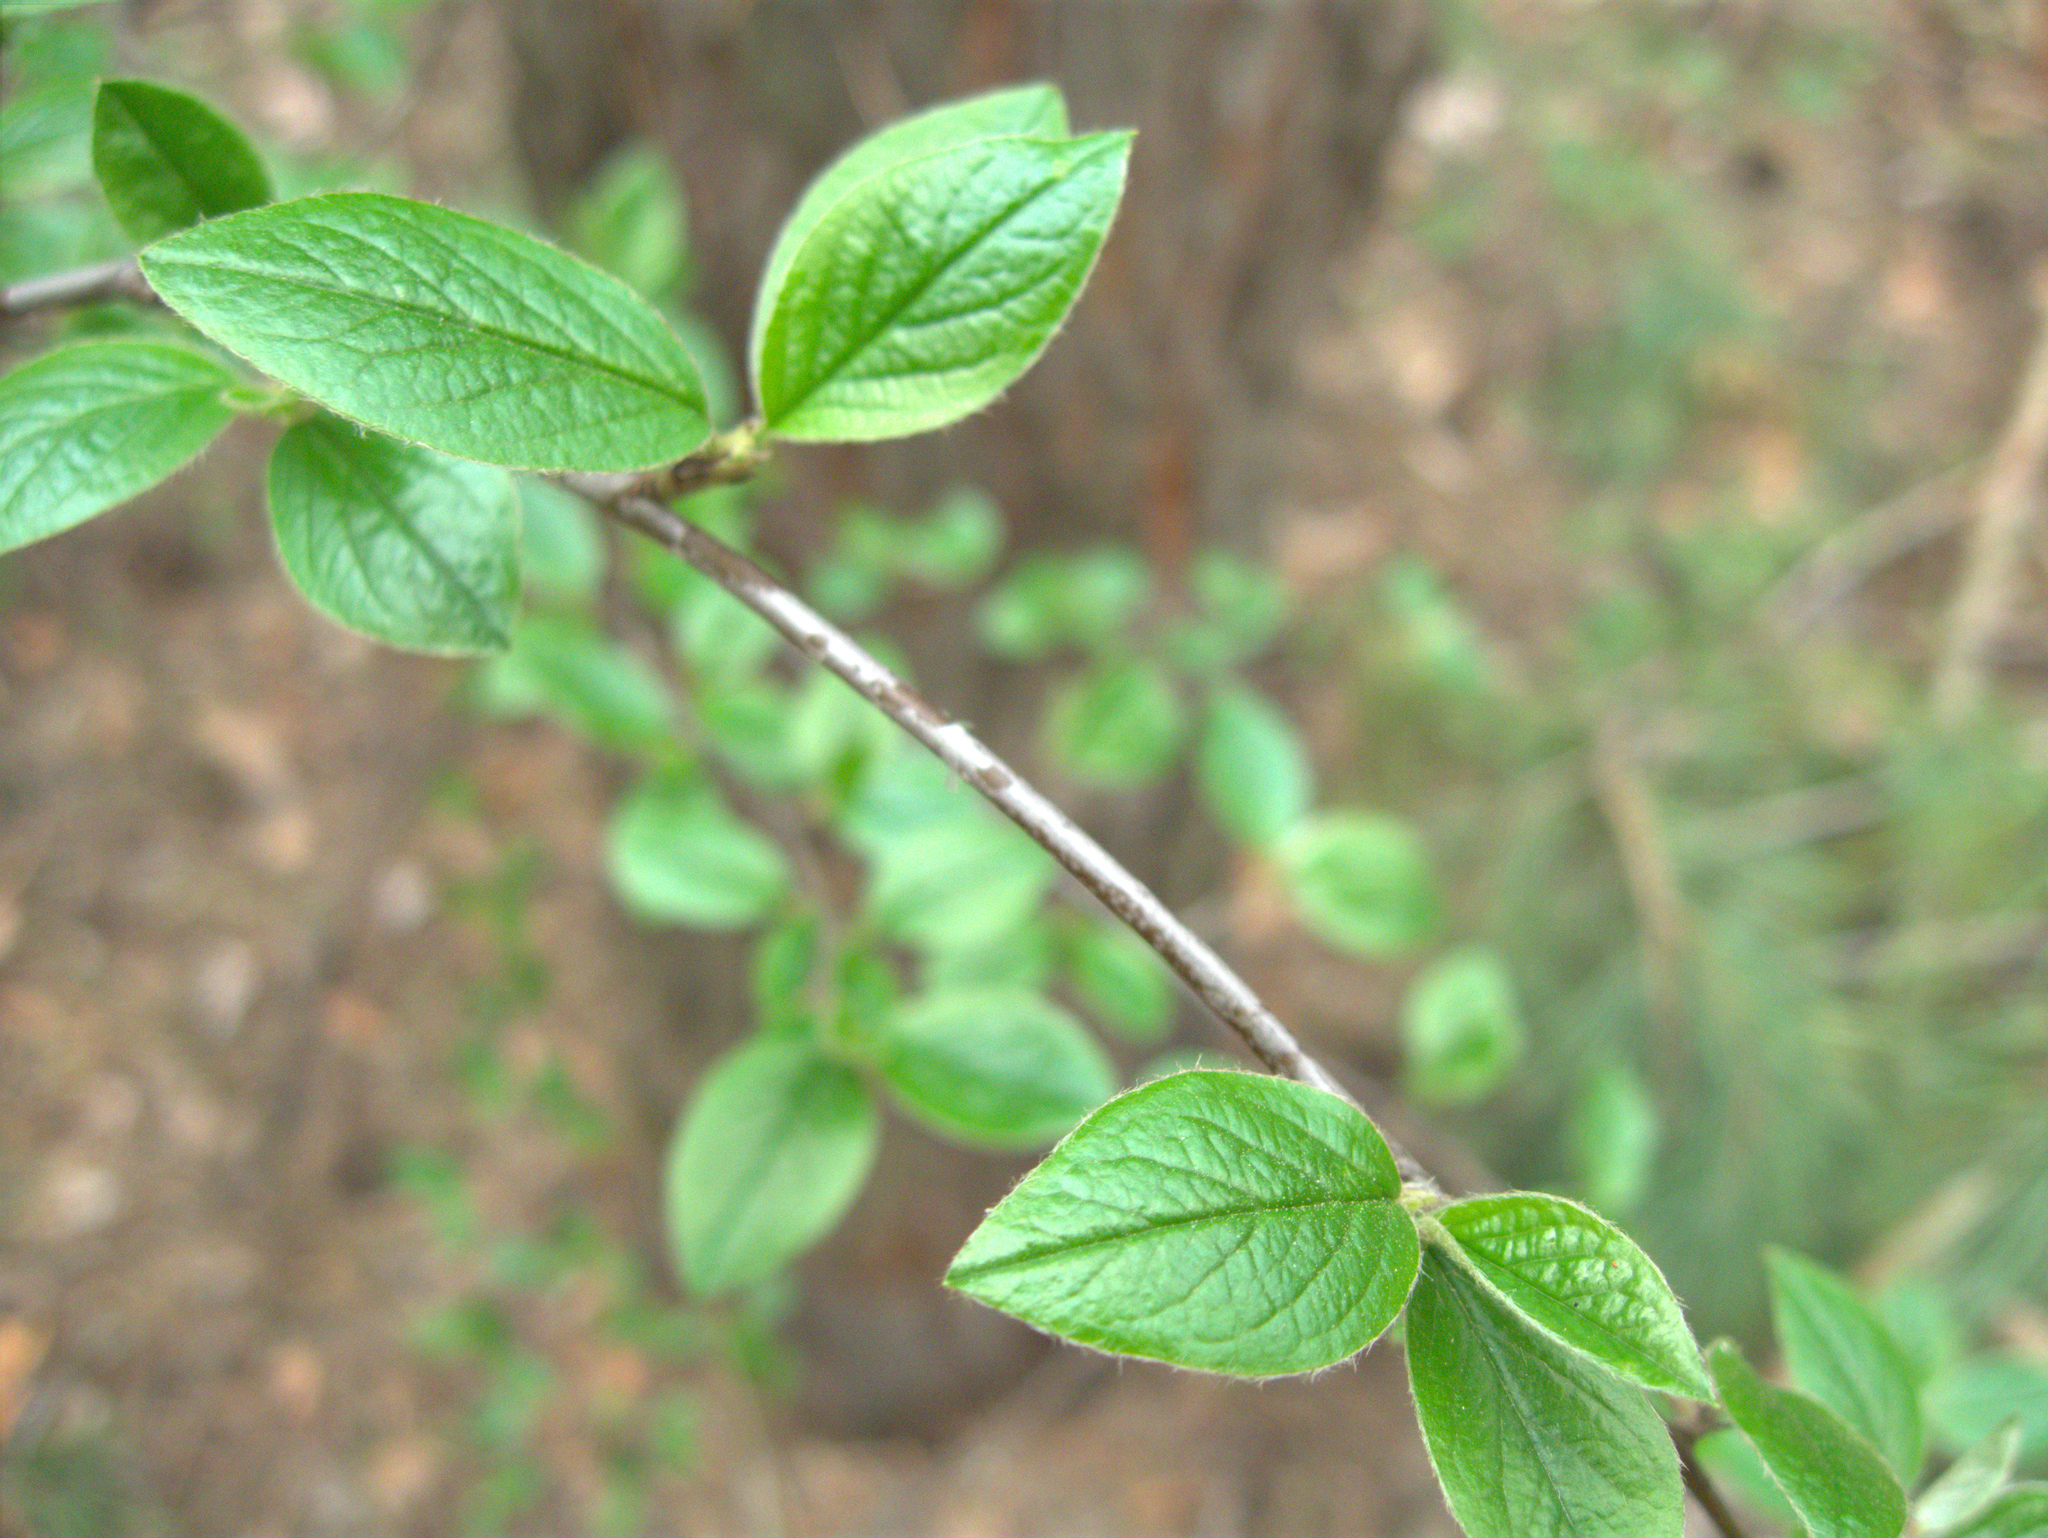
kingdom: Plantae
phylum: Tracheophyta
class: Magnoliopsida
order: Rosales
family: Rosaceae
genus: Cotoneaster
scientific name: Cotoneaster acutifolius
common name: Peking cotoneaster
